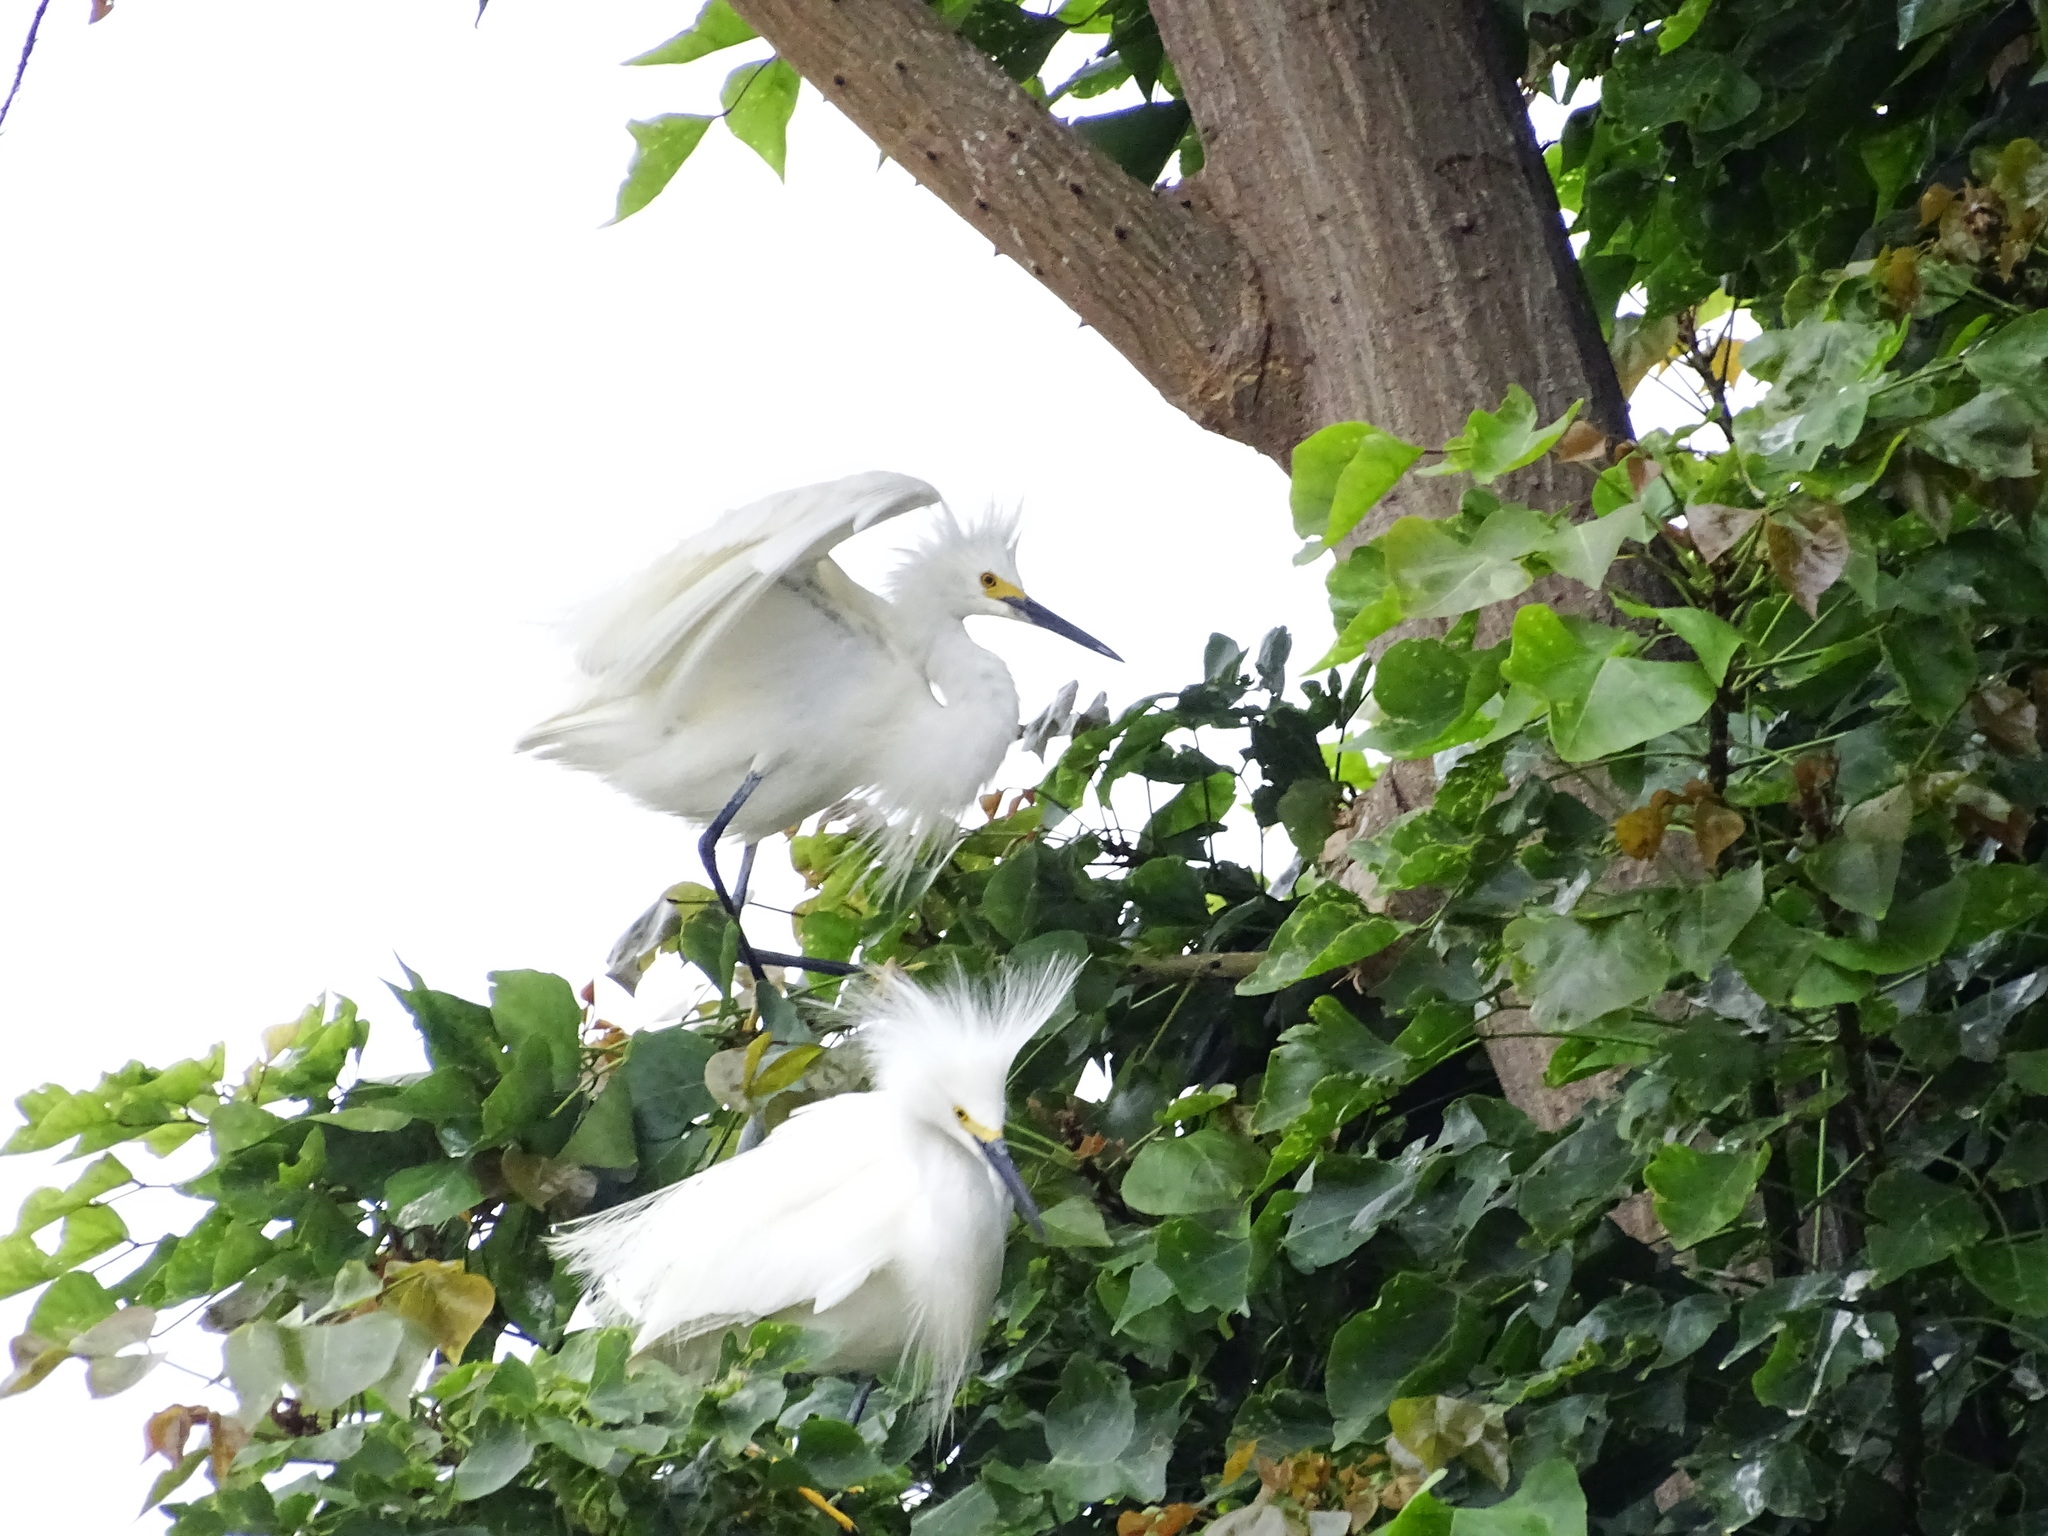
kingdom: Animalia
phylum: Chordata
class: Aves
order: Pelecaniformes
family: Ardeidae
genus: Egretta
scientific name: Egretta thula
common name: Snowy egret
